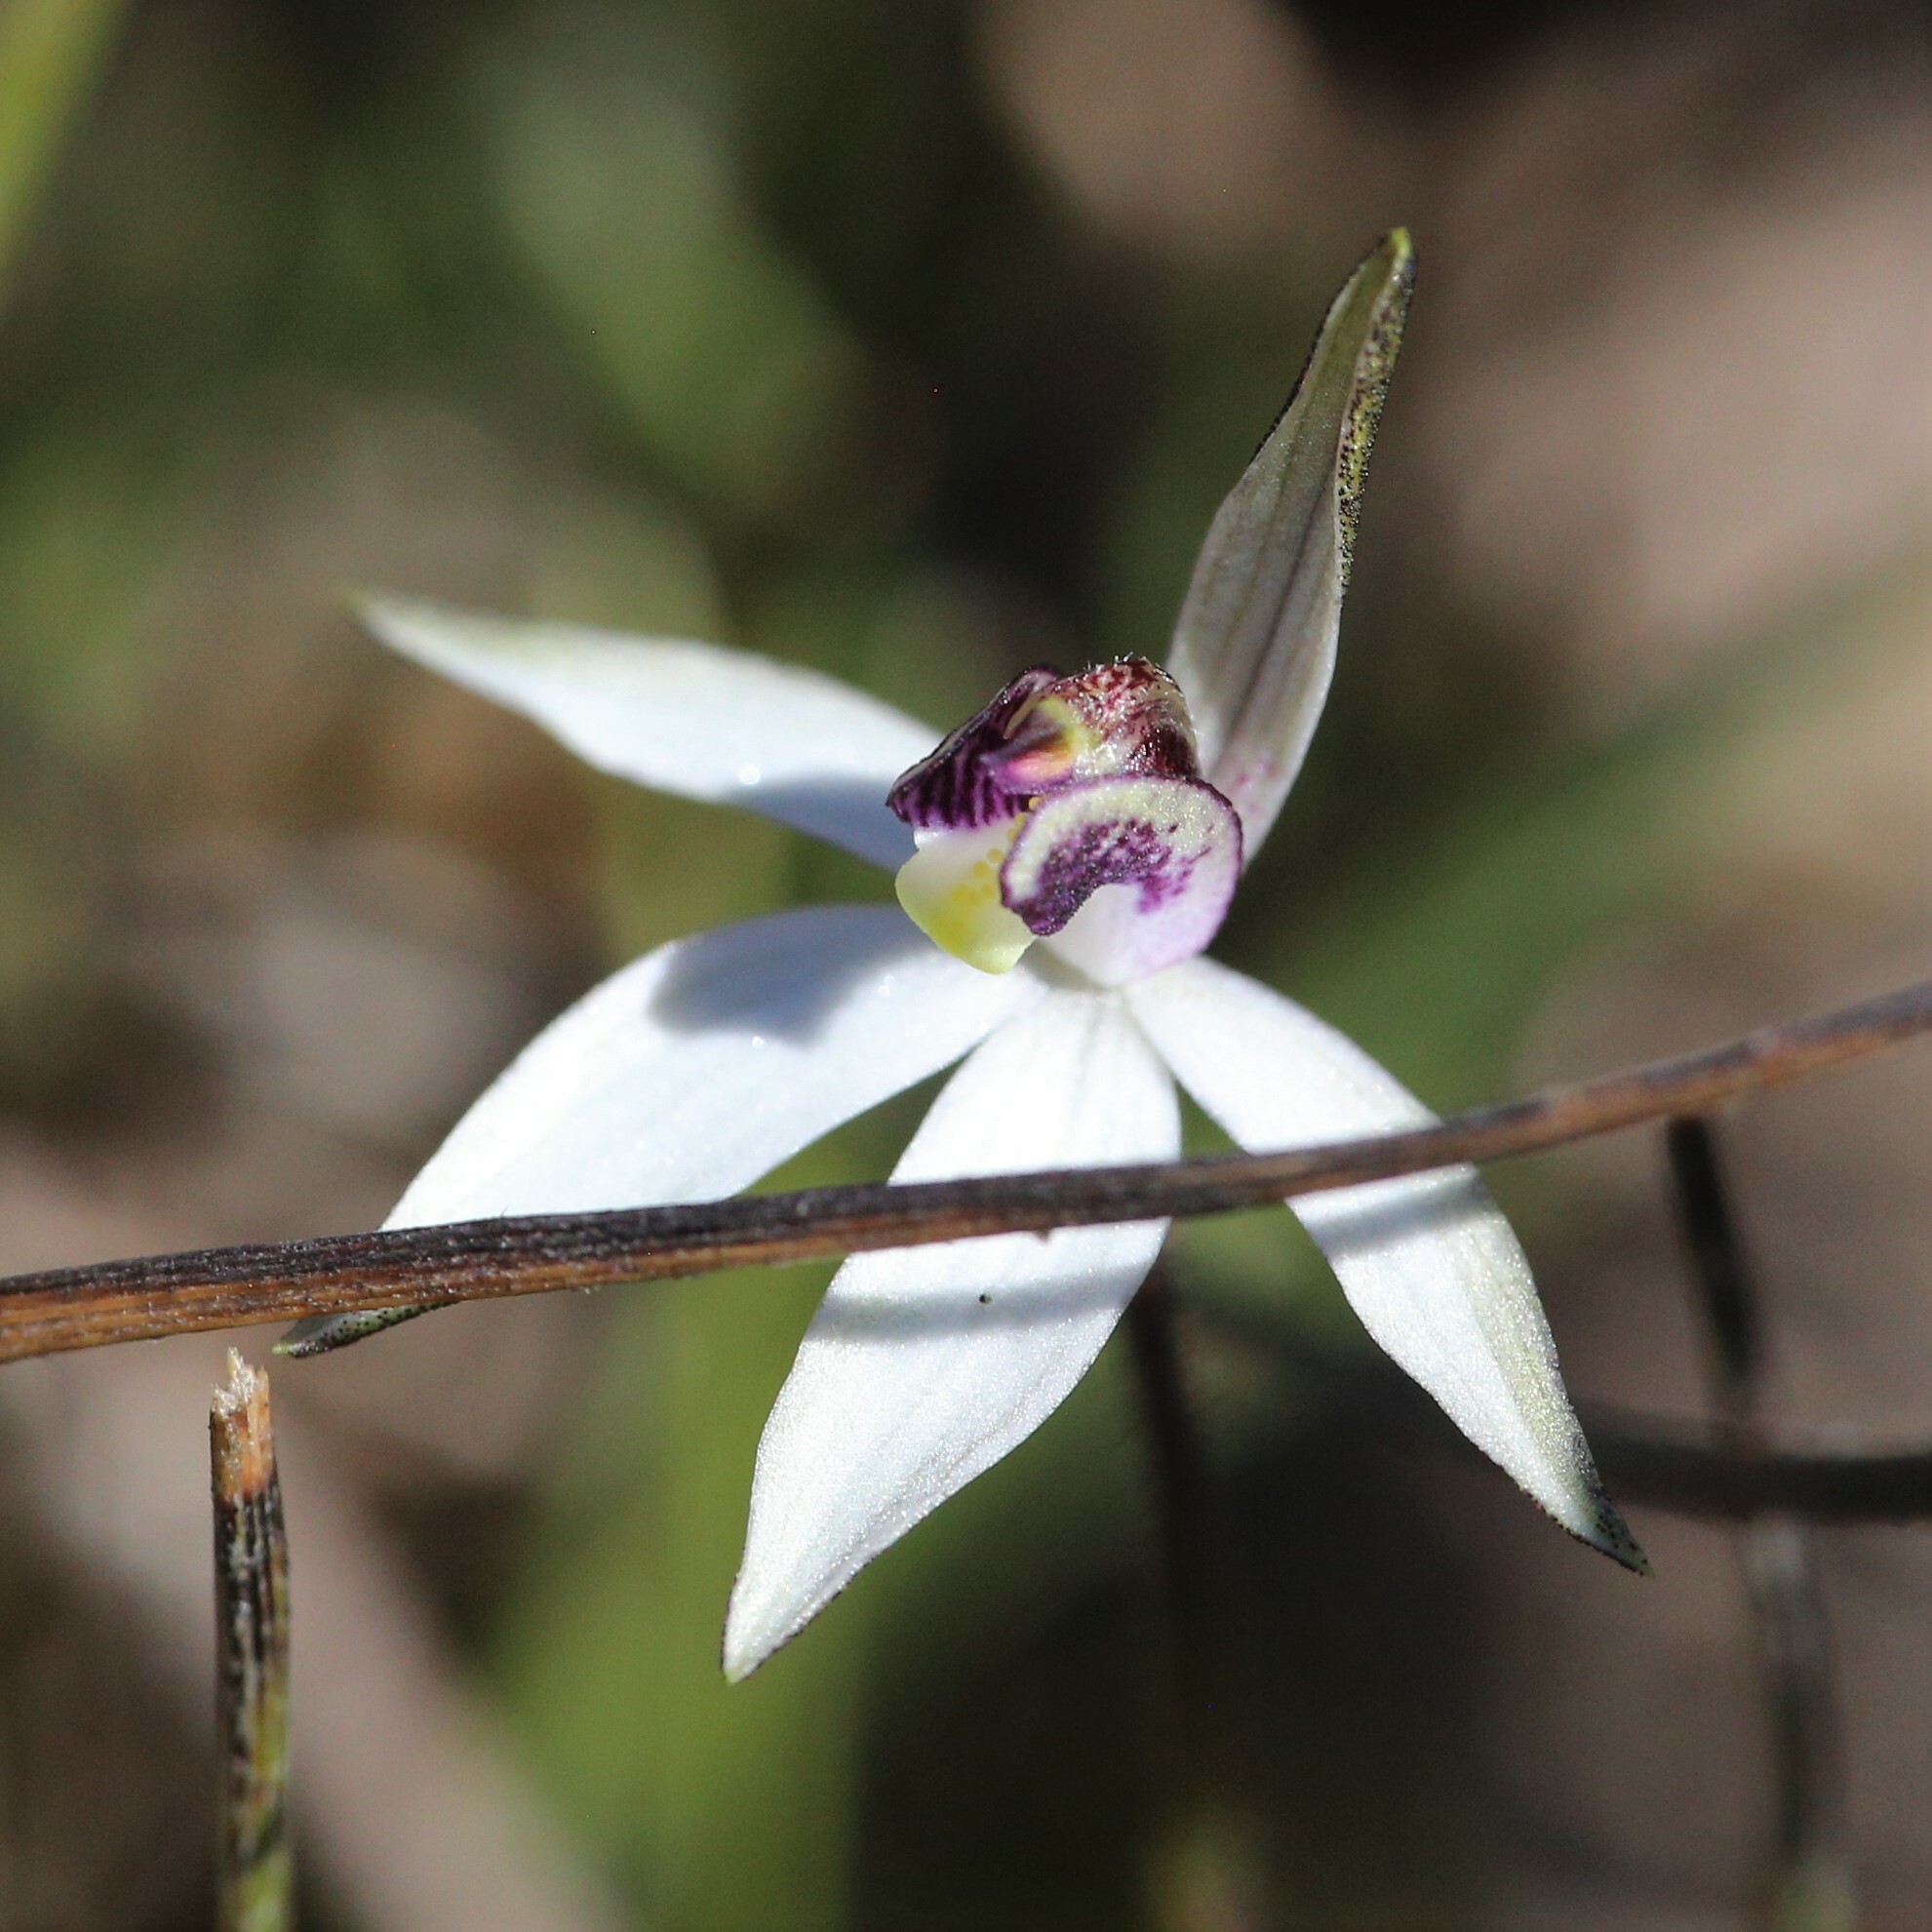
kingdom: Plantae
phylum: Tracheophyta
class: Liliopsida
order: Asparagales
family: Orchidaceae
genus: Caladenia
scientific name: Caladenia saccharata
